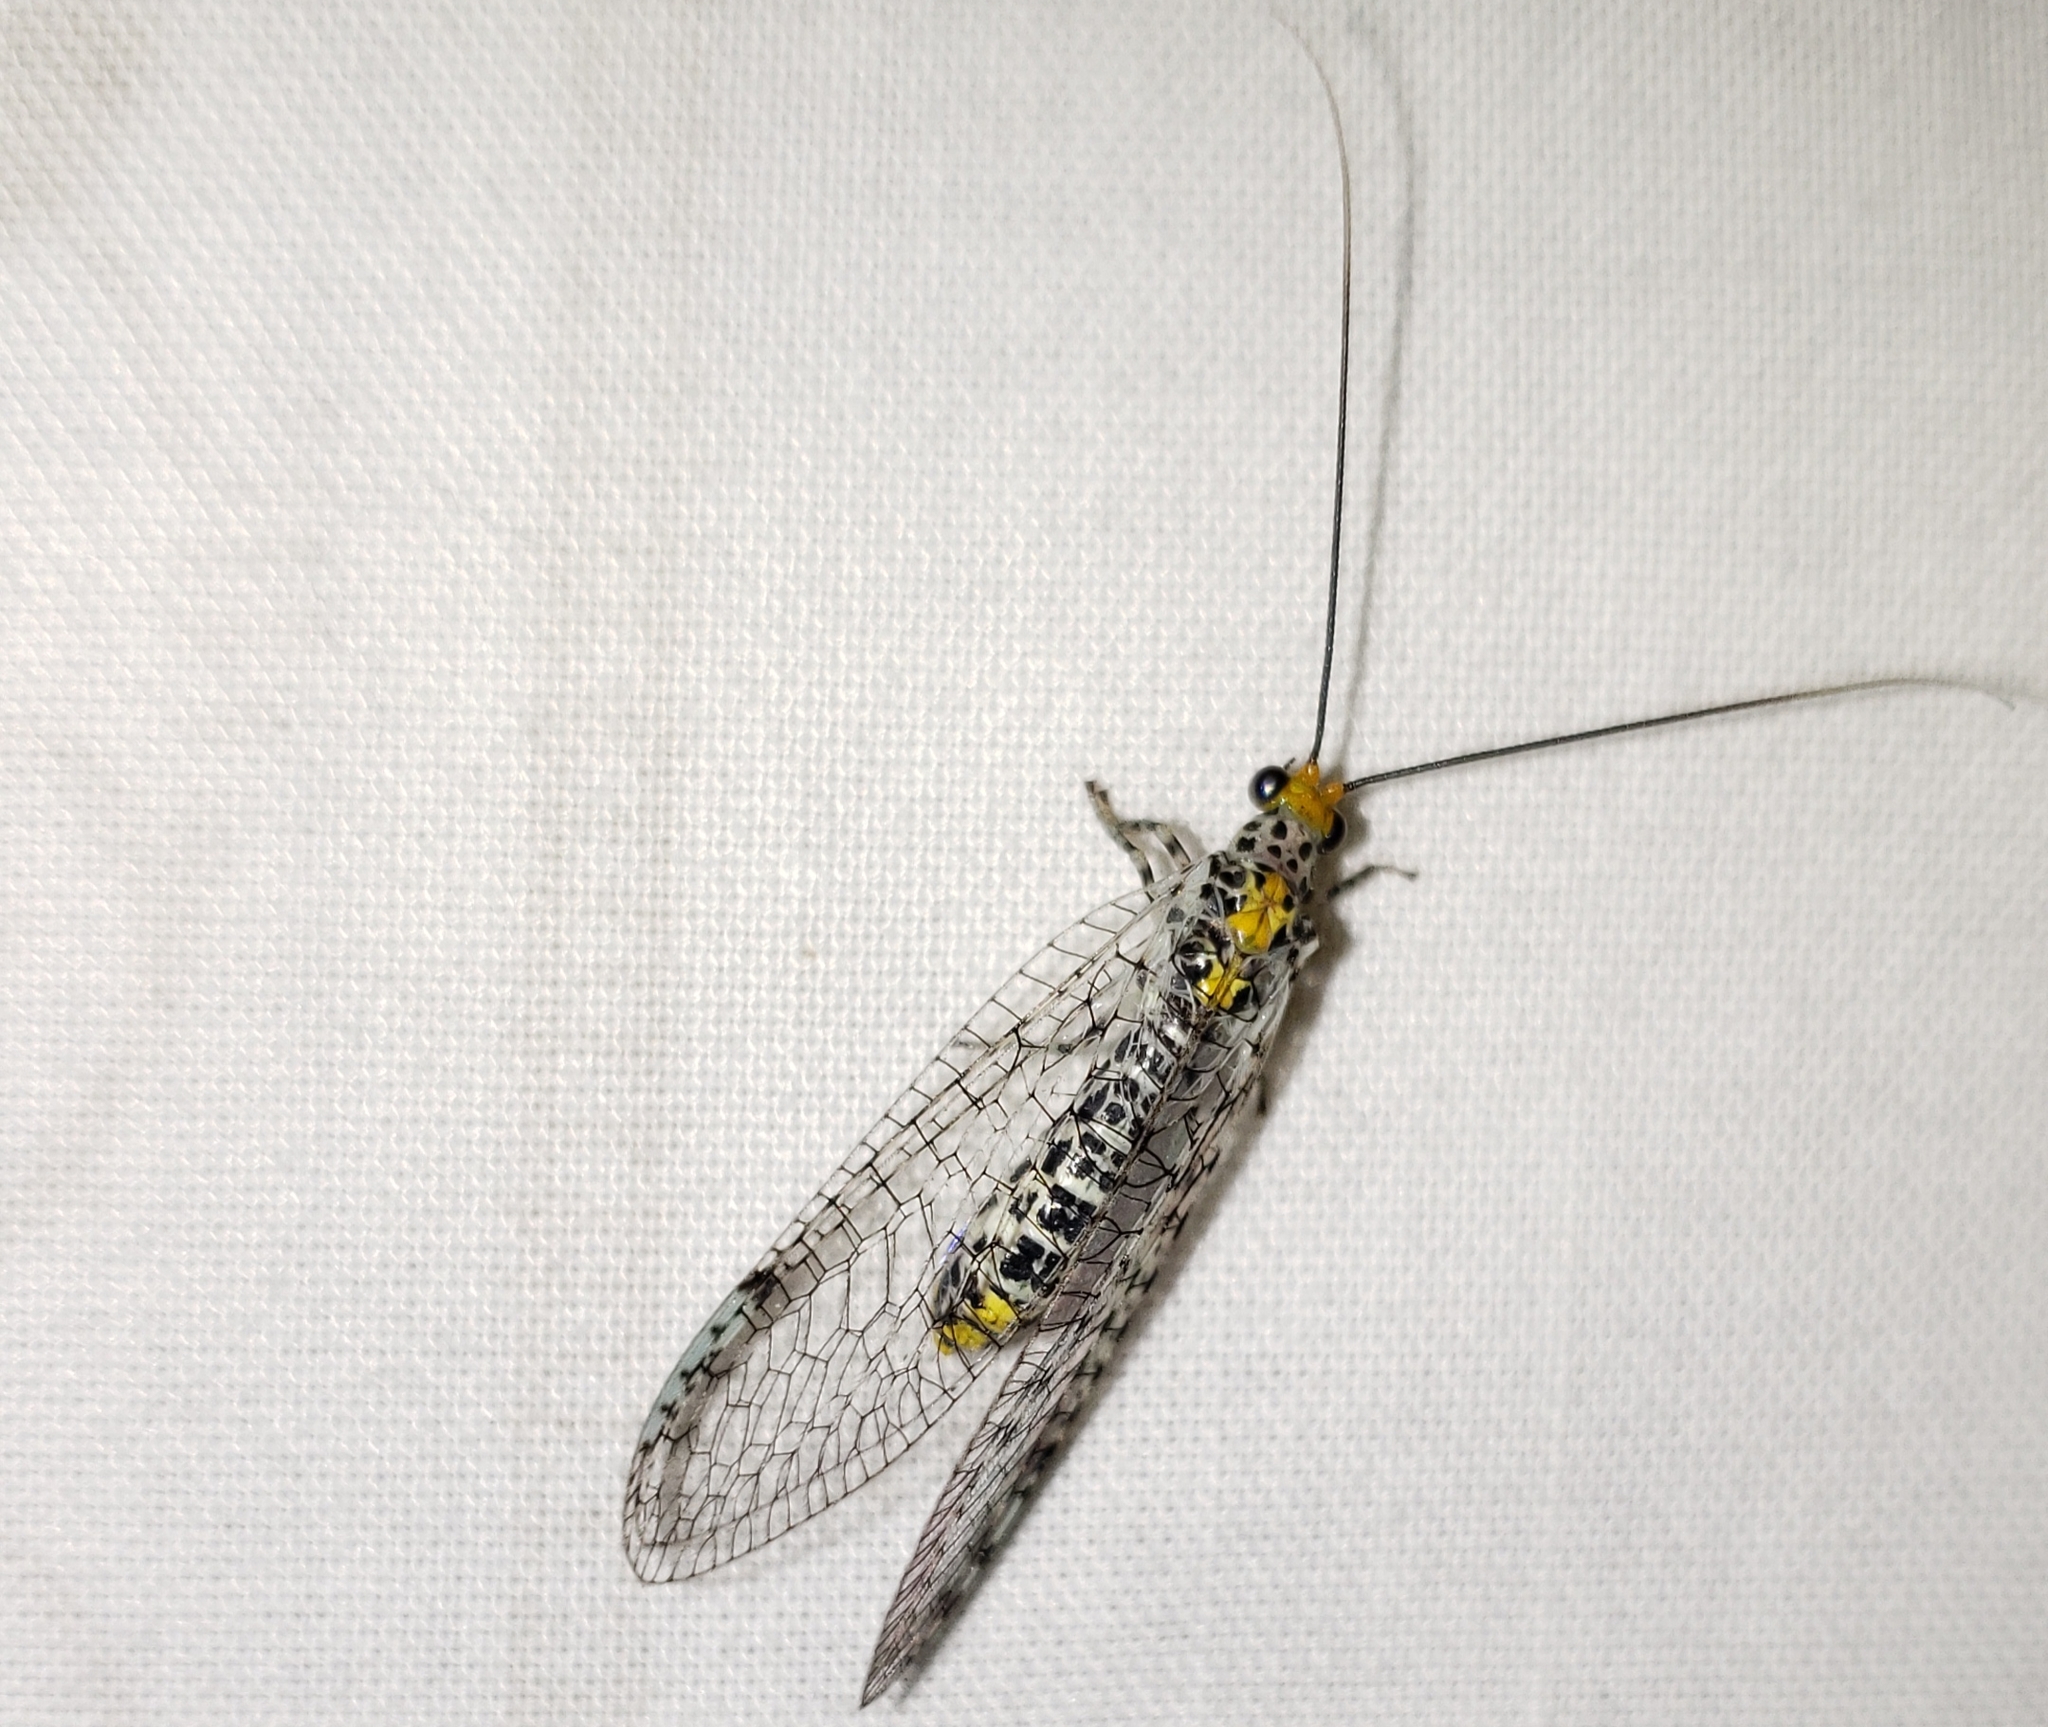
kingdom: Animalia
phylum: Arthropoda
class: Insecta
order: Neuroptera
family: Chrysopidae
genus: Abachrysa
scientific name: Abachrysa eureka
